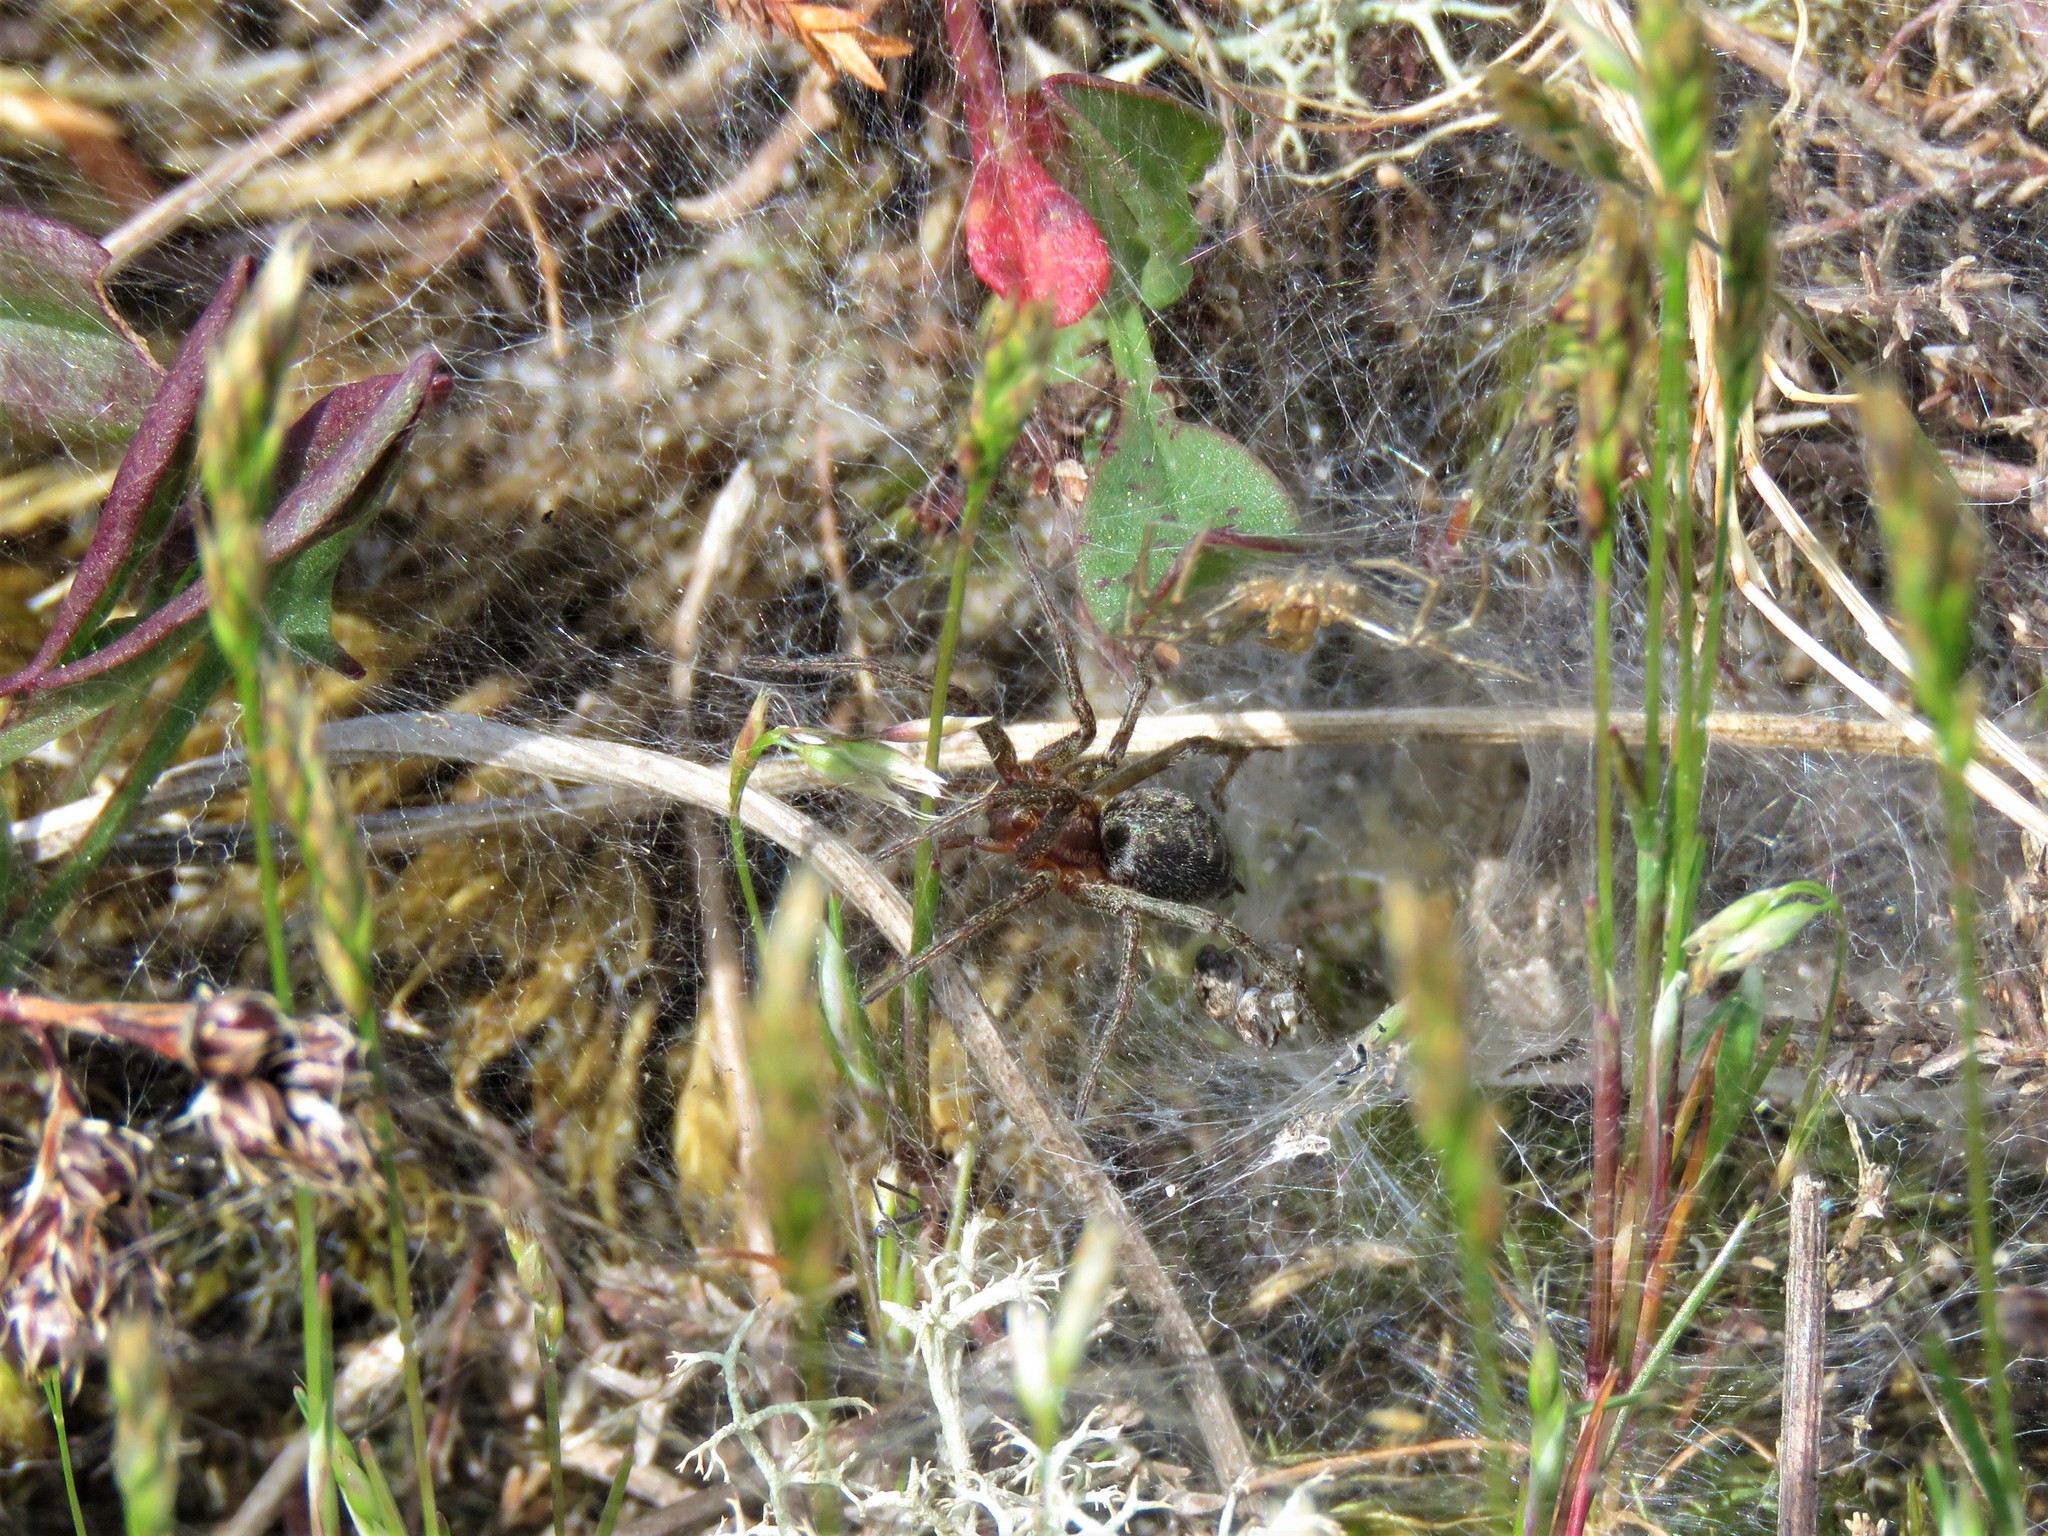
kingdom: Animalia
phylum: Arthropoda
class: Arachnida
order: Araneae
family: Agelenidae
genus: Agelena
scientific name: Agelena labyrinthica
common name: Labyrinth spider
